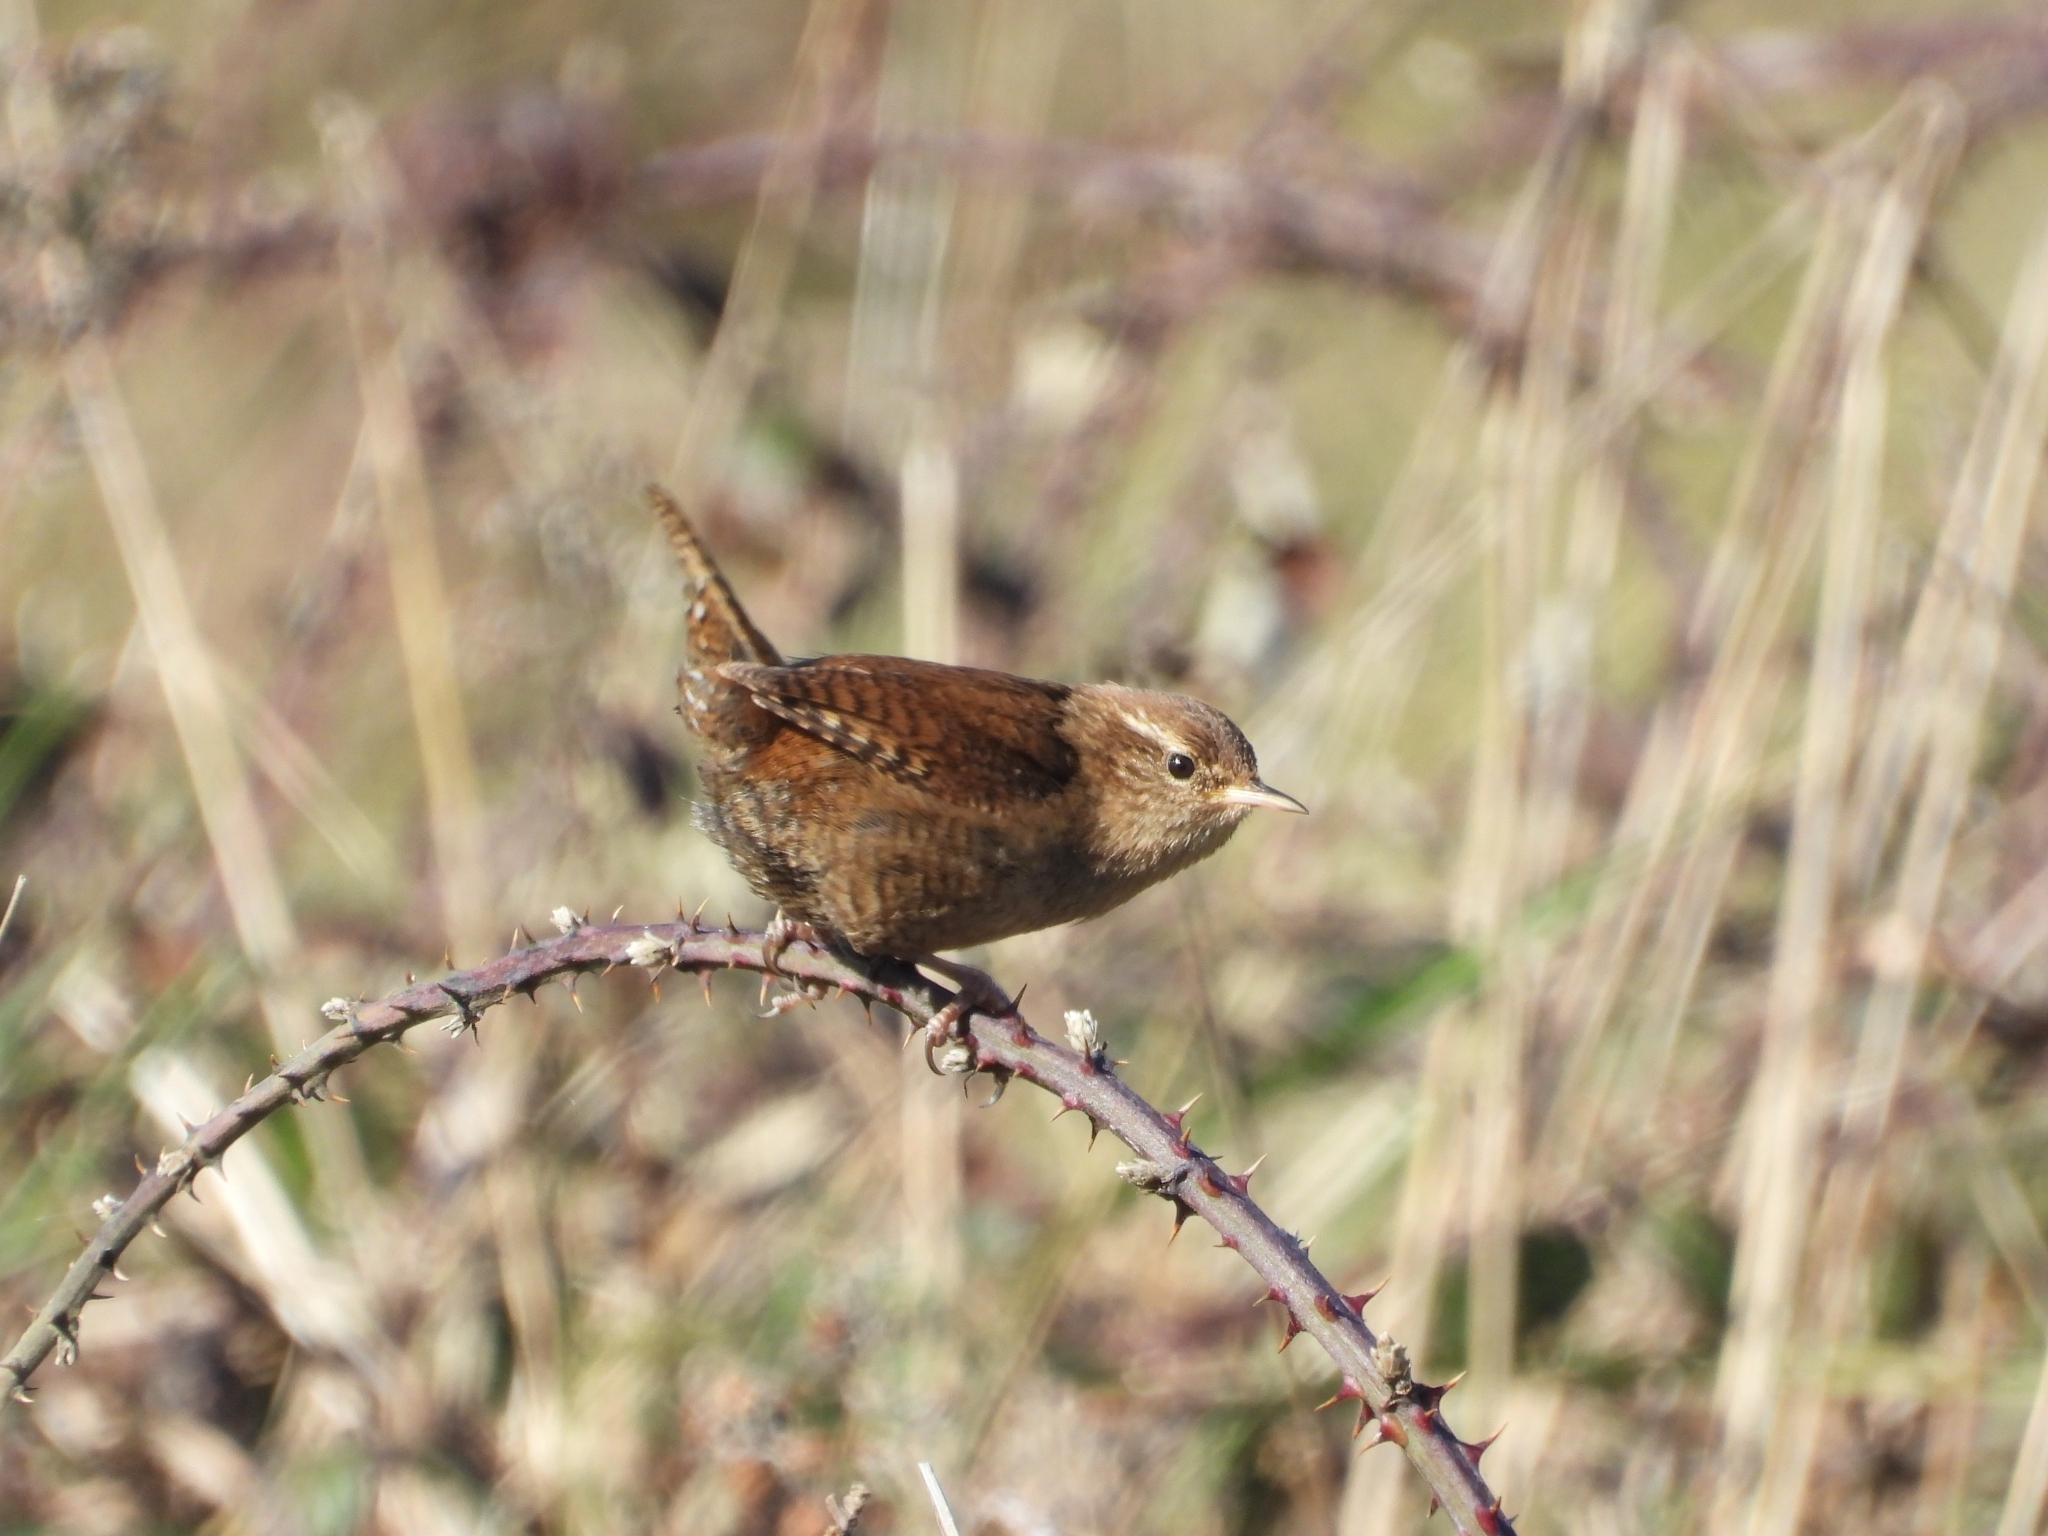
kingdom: Animalia
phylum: Chordata
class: Aves
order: Passeriformes
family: Troglodytidae
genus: Troglodytes
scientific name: Troglodytes troglodytes
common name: Eurasian wren
